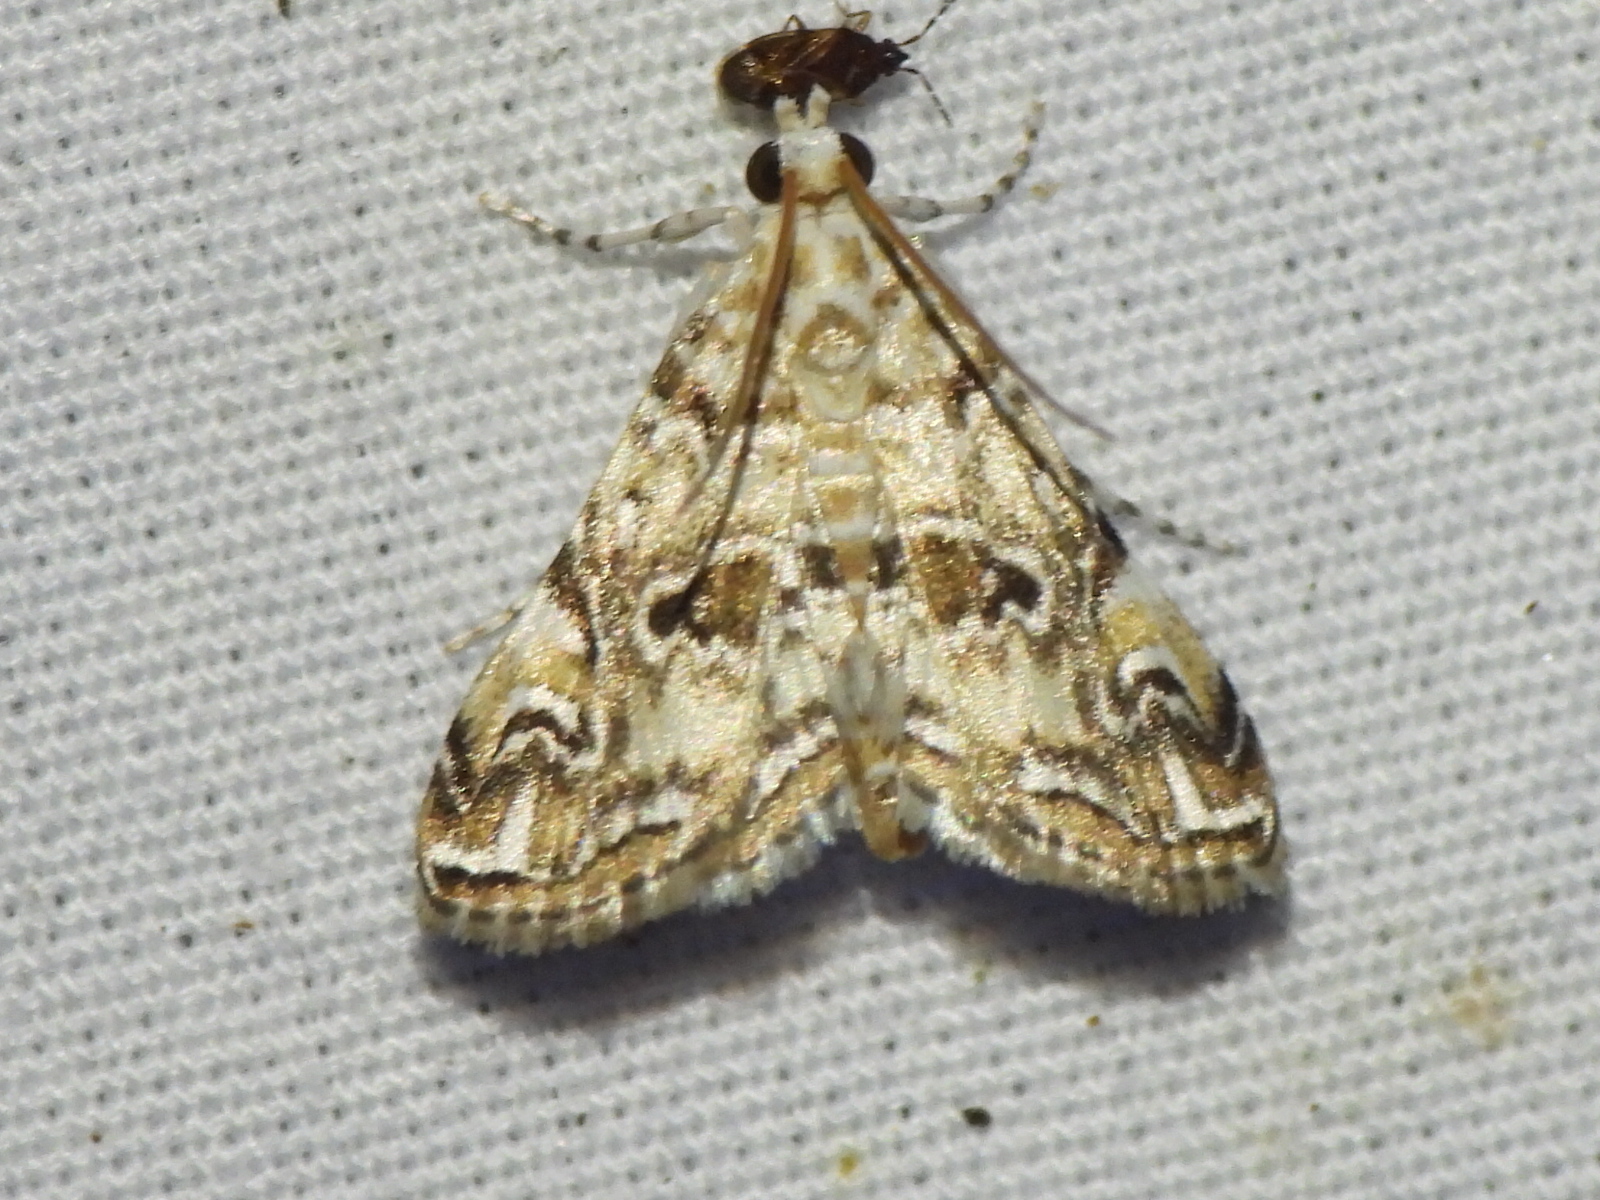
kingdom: Animalia
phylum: Arthropoda
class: Insecta
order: Lepidoptera
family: Crambidae
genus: Elophila
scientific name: Elophila gyralis
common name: Waterlily borer moth
